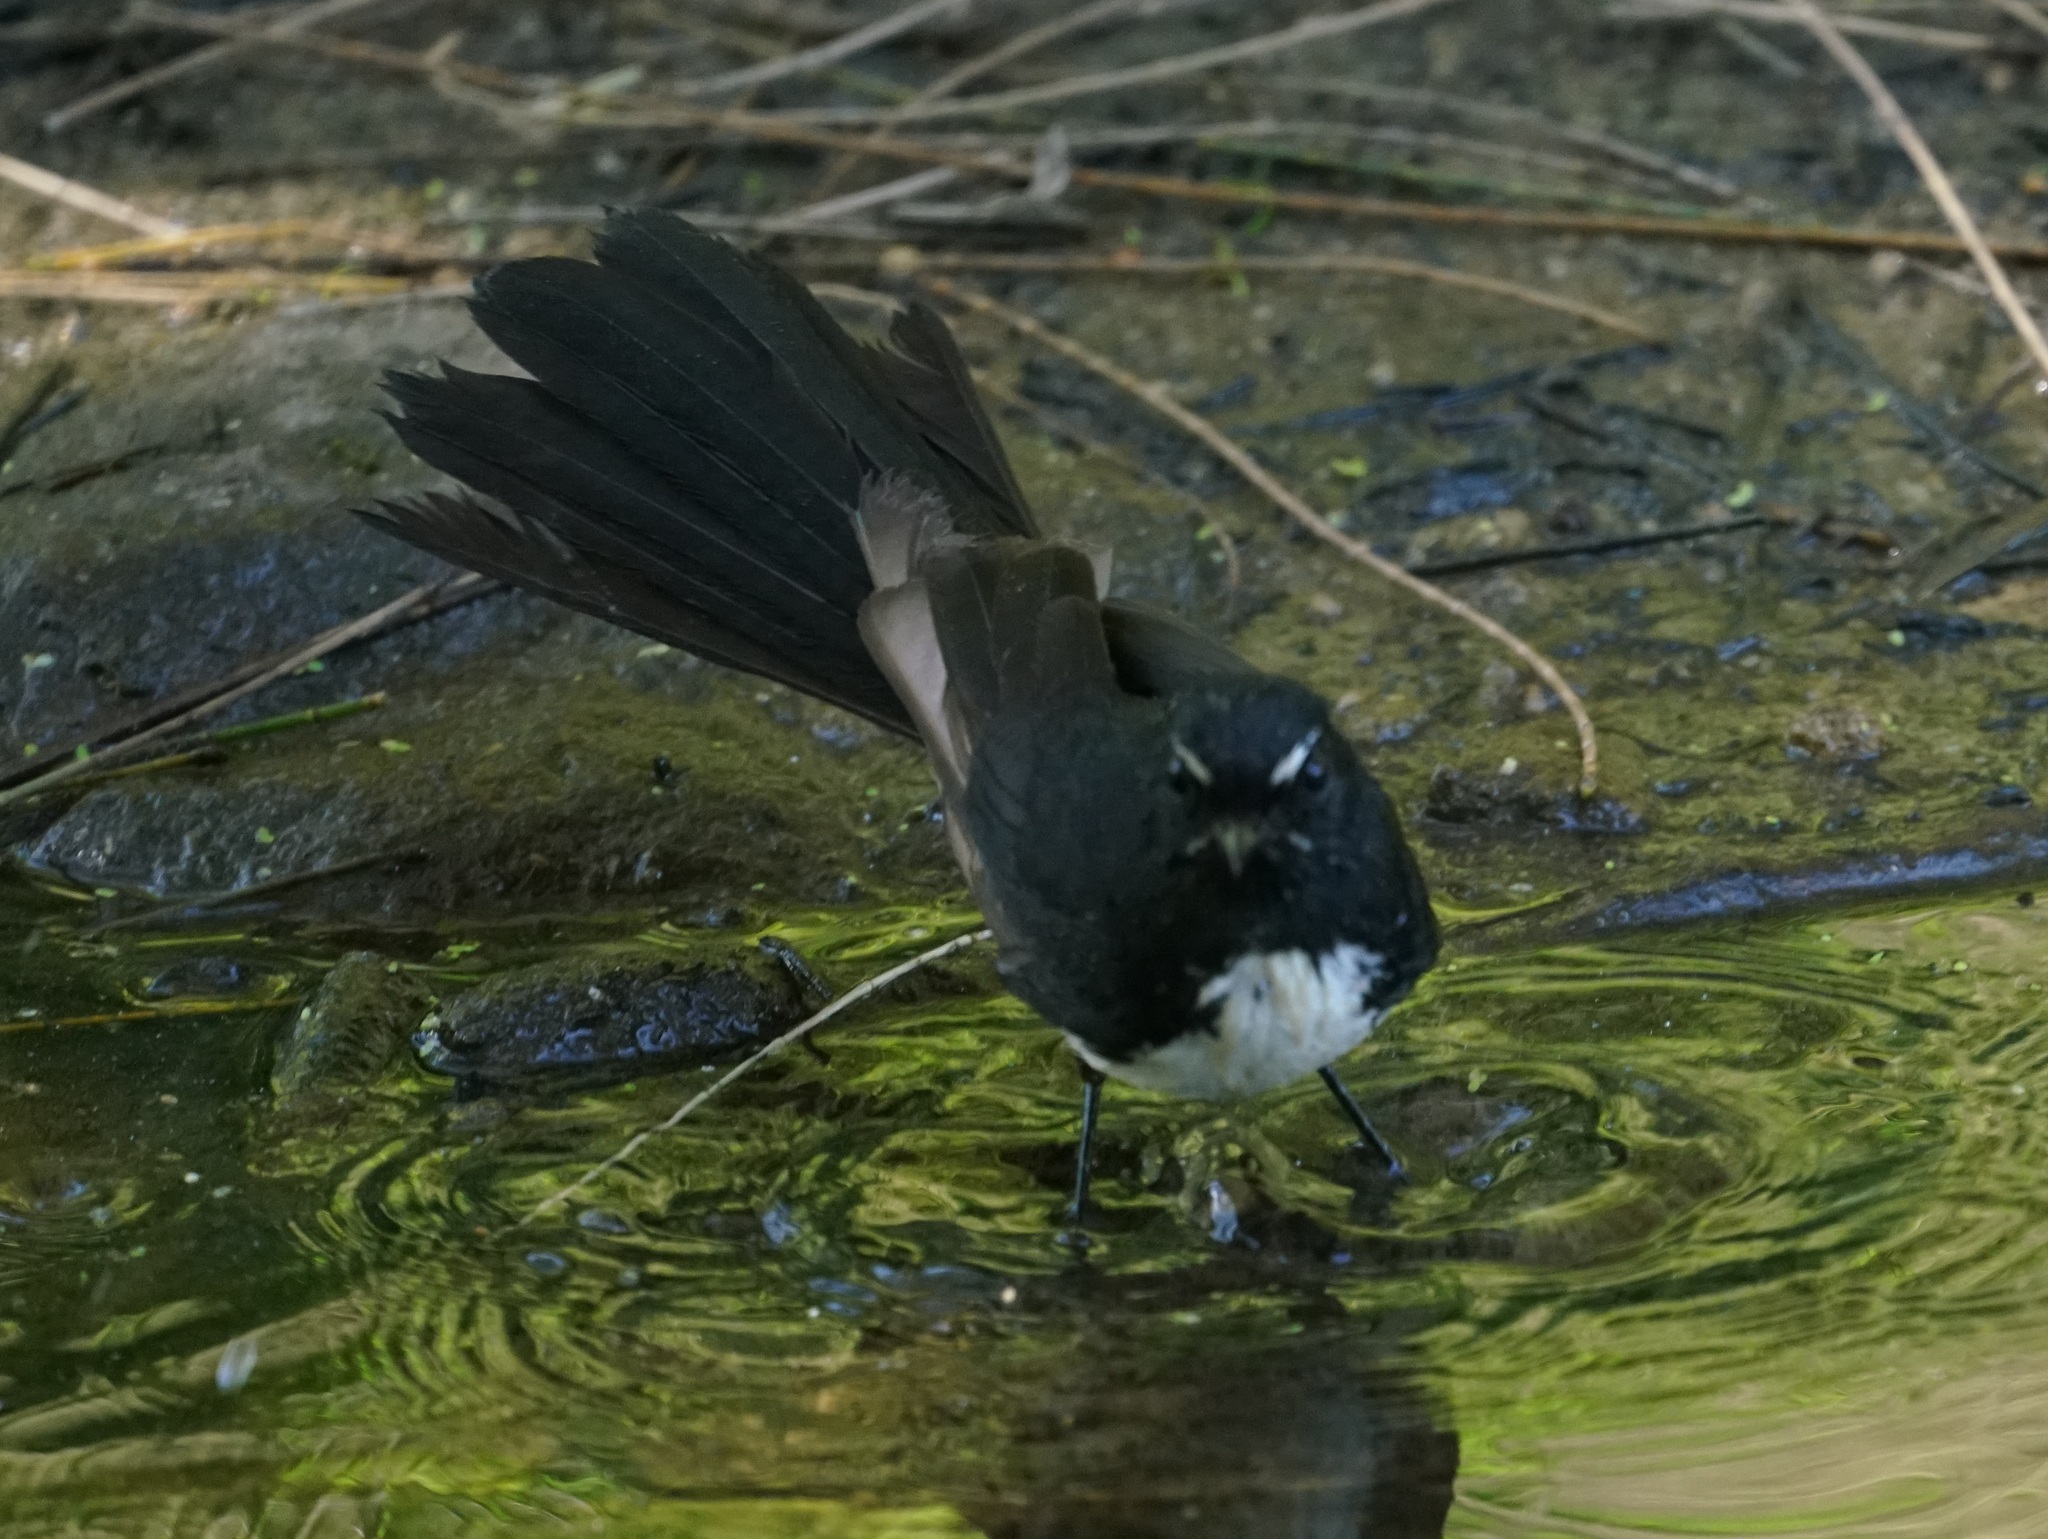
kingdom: Animalia
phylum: Chordata
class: Aves
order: Passeriformes
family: Rhipiduridae
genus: Rhipidura
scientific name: Rhipidura leucophrys
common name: Willie wagtail
